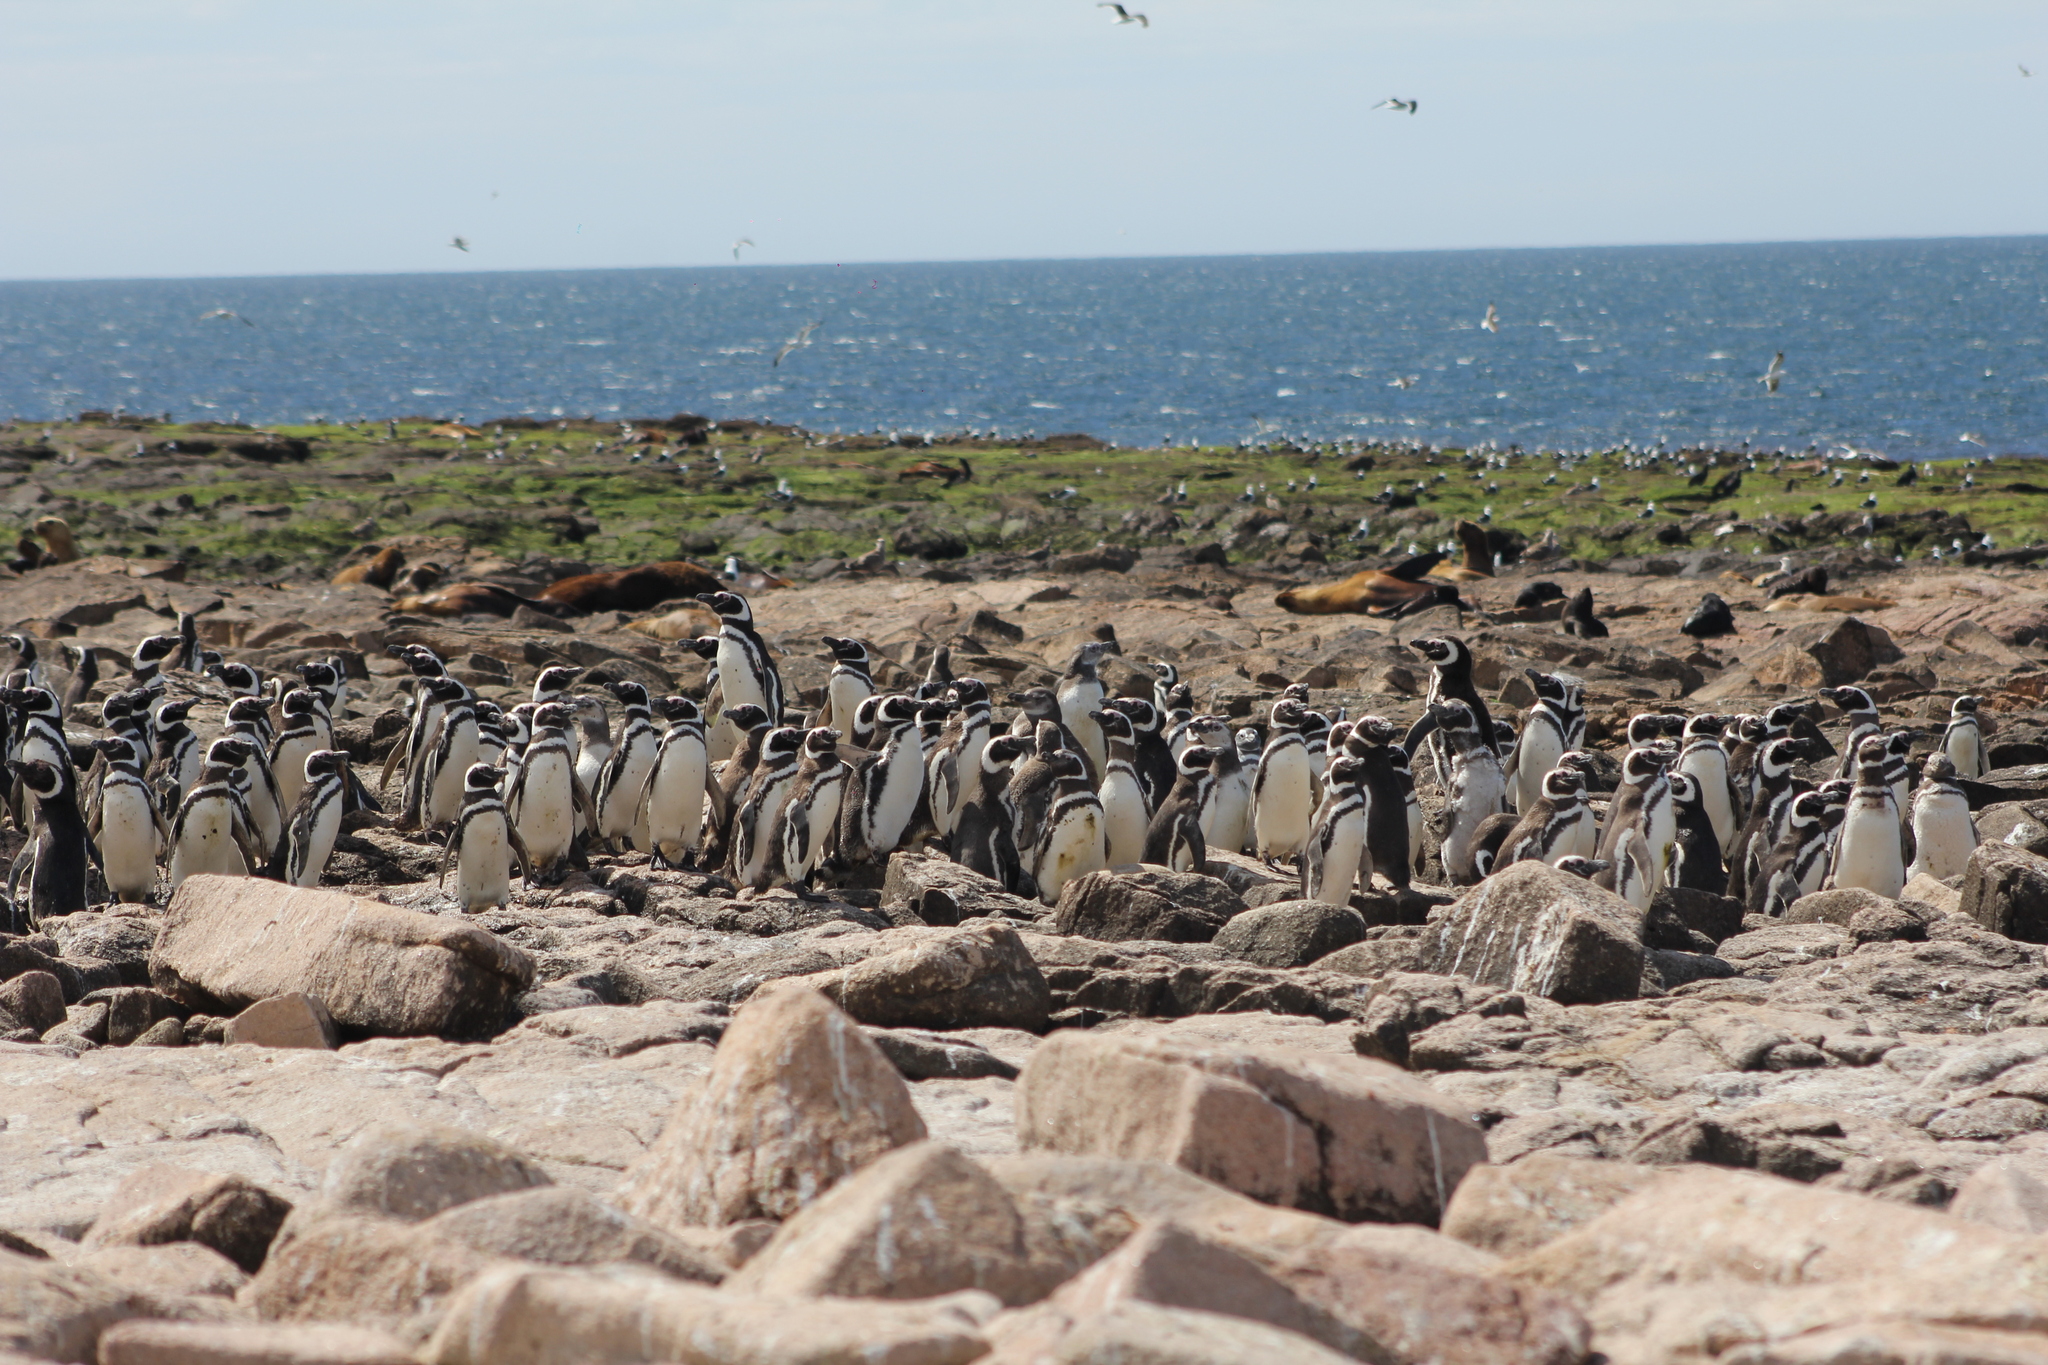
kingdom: Animalia
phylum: Chordata
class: Aves
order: Sphenisciformes
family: Spheniscidae
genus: Spheniscus
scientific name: Spheniscus magellanicus
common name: Magellanic penguin
